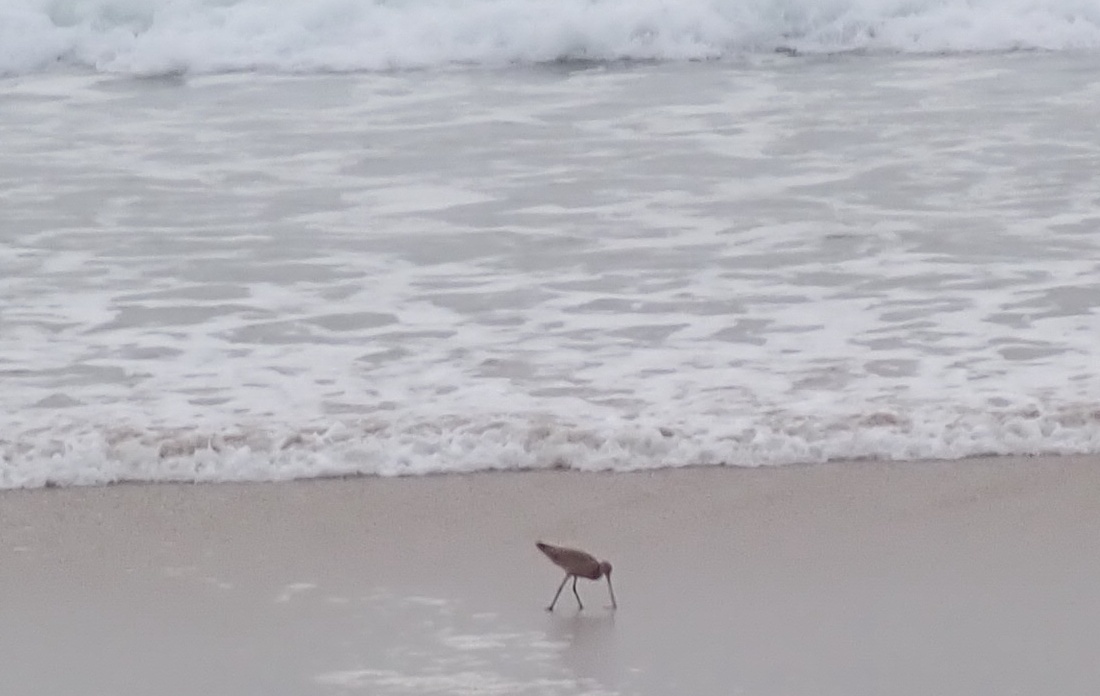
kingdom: Animalia
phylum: Chordata
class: Aves
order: Charadriiformes
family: Scolopacidae
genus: Limosa
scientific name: Limosa fedoa
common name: Marbled godwit
